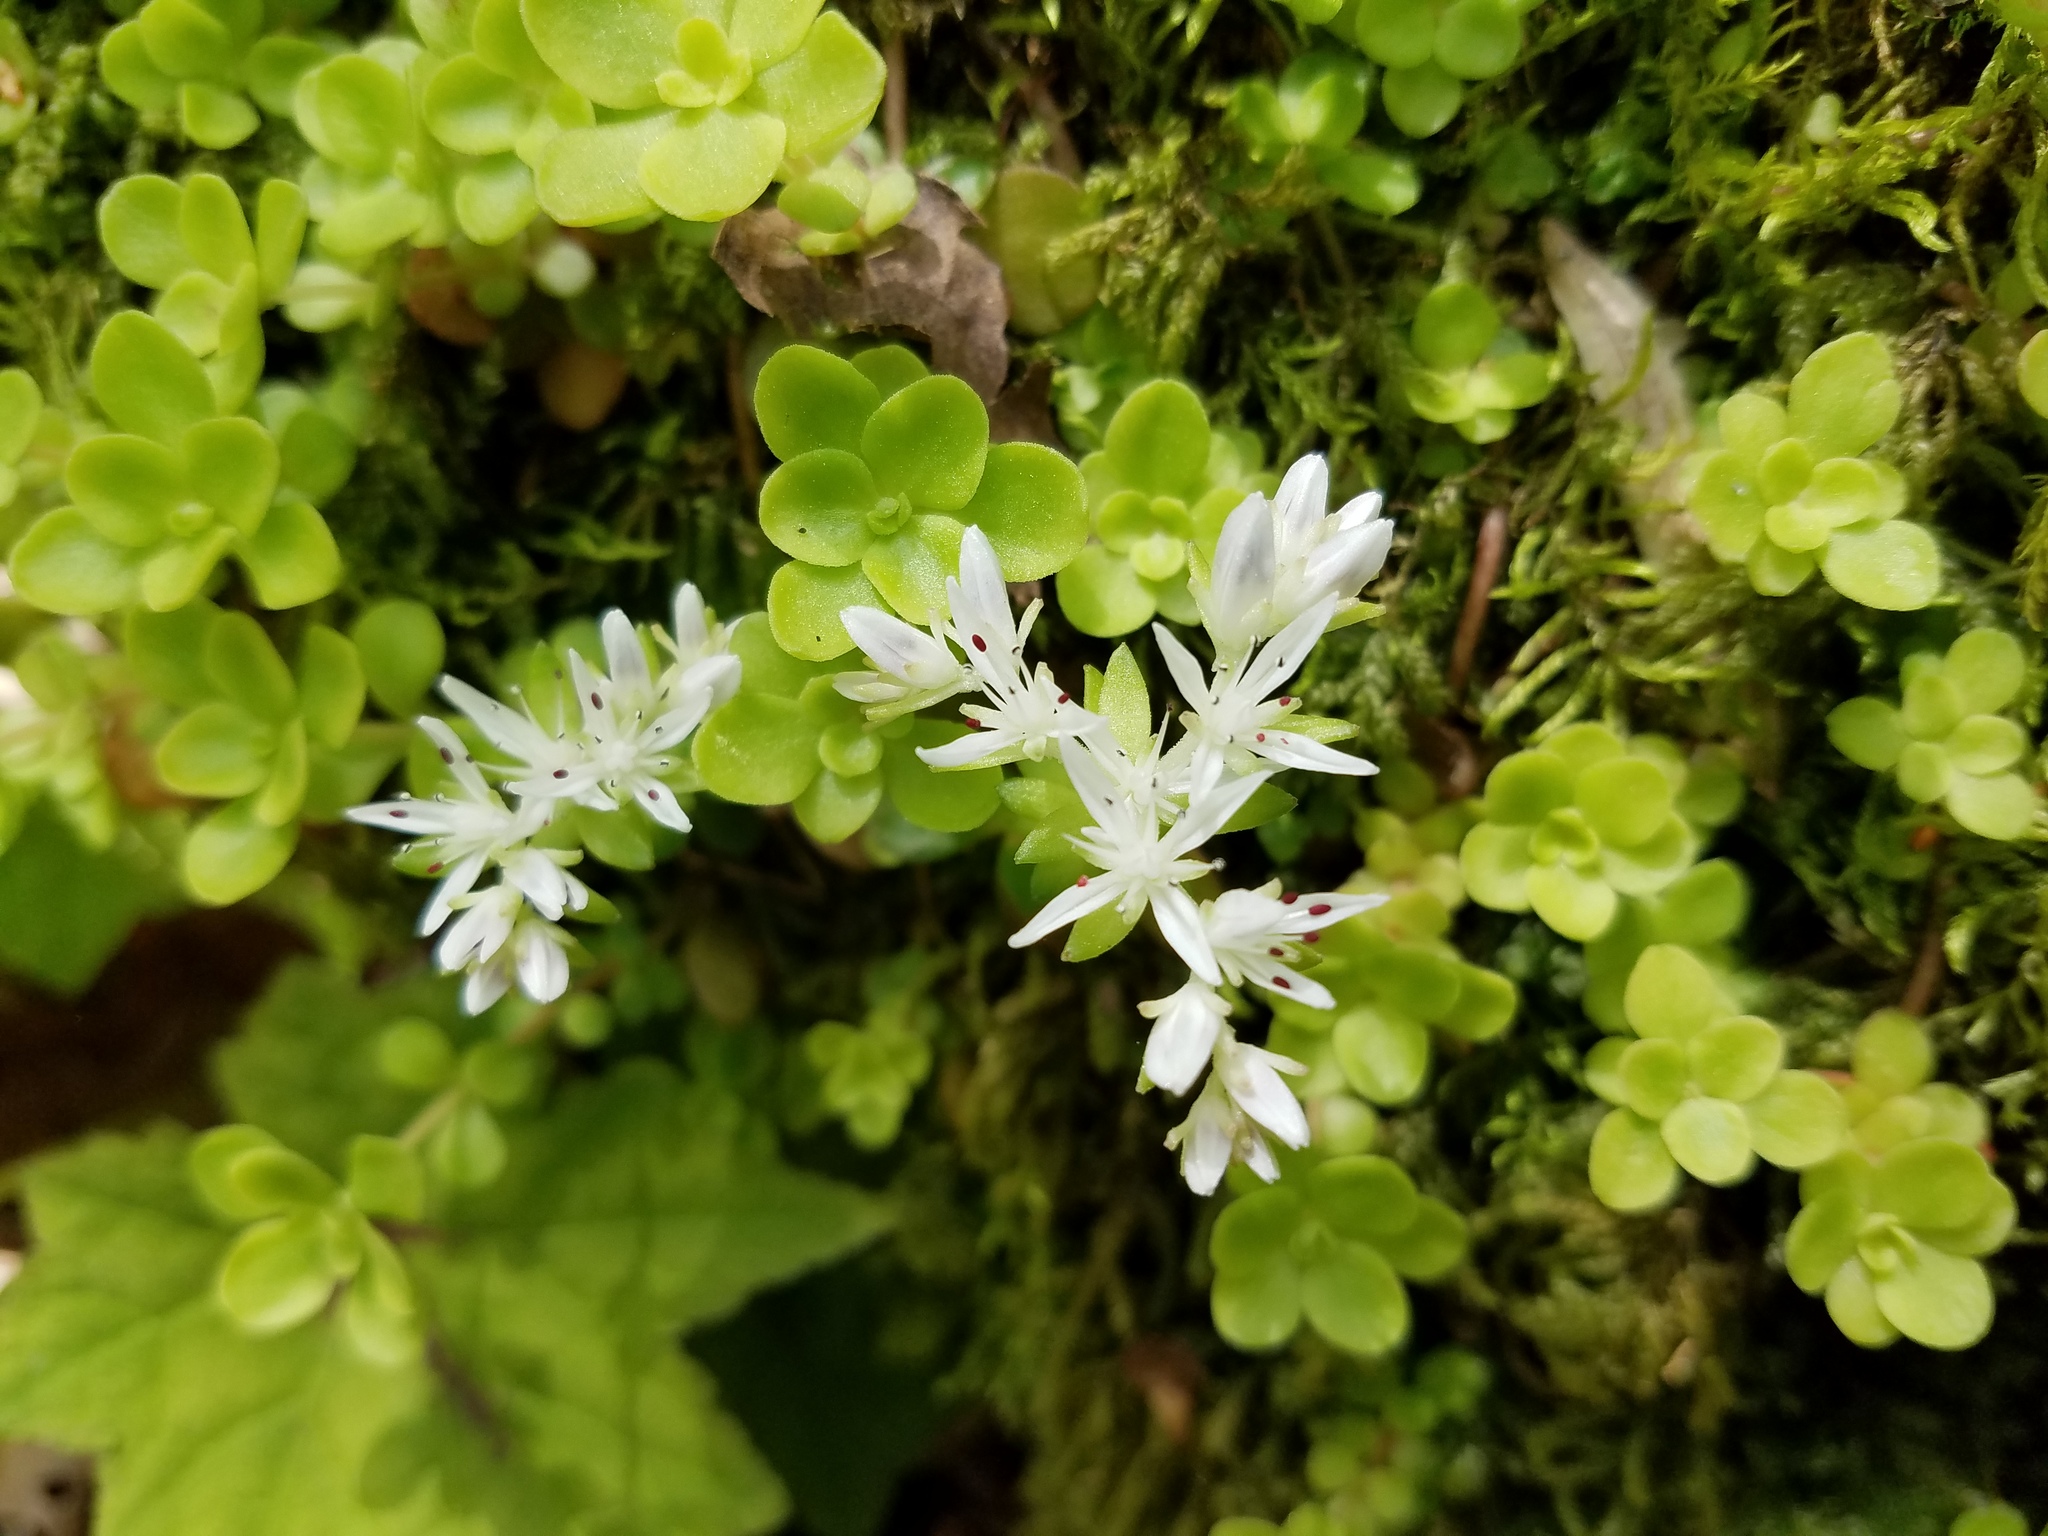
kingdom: Plantae
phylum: Tracheophyta
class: Magnoliopsida
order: Saxifragales
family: Crassulaceae
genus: Sedum
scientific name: Sedum ternatum
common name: Wild stonecrop
